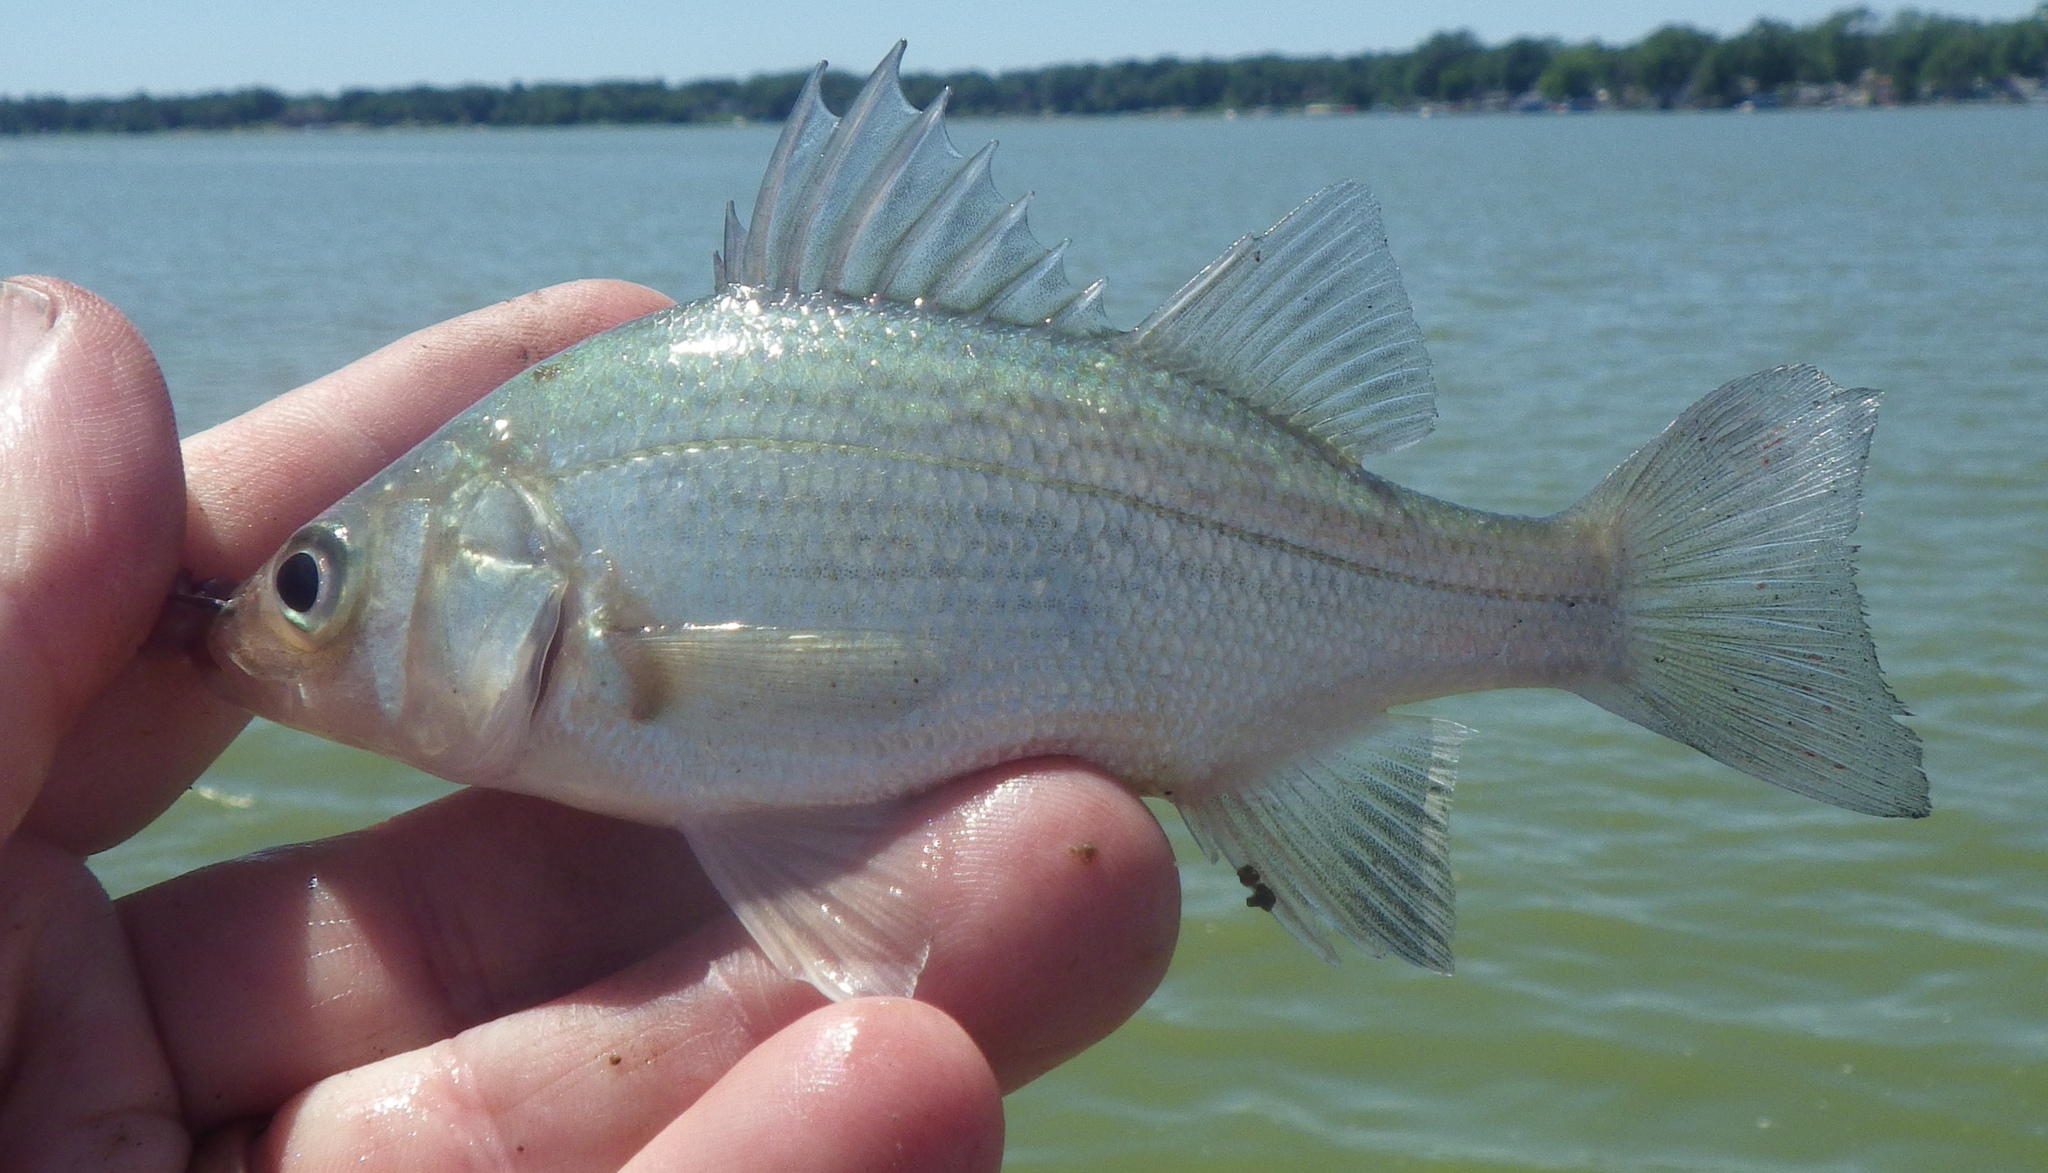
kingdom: Animalia
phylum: Chordata
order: Perciformes
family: Moronidae
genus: Morone
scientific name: Morone americana
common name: White perch
